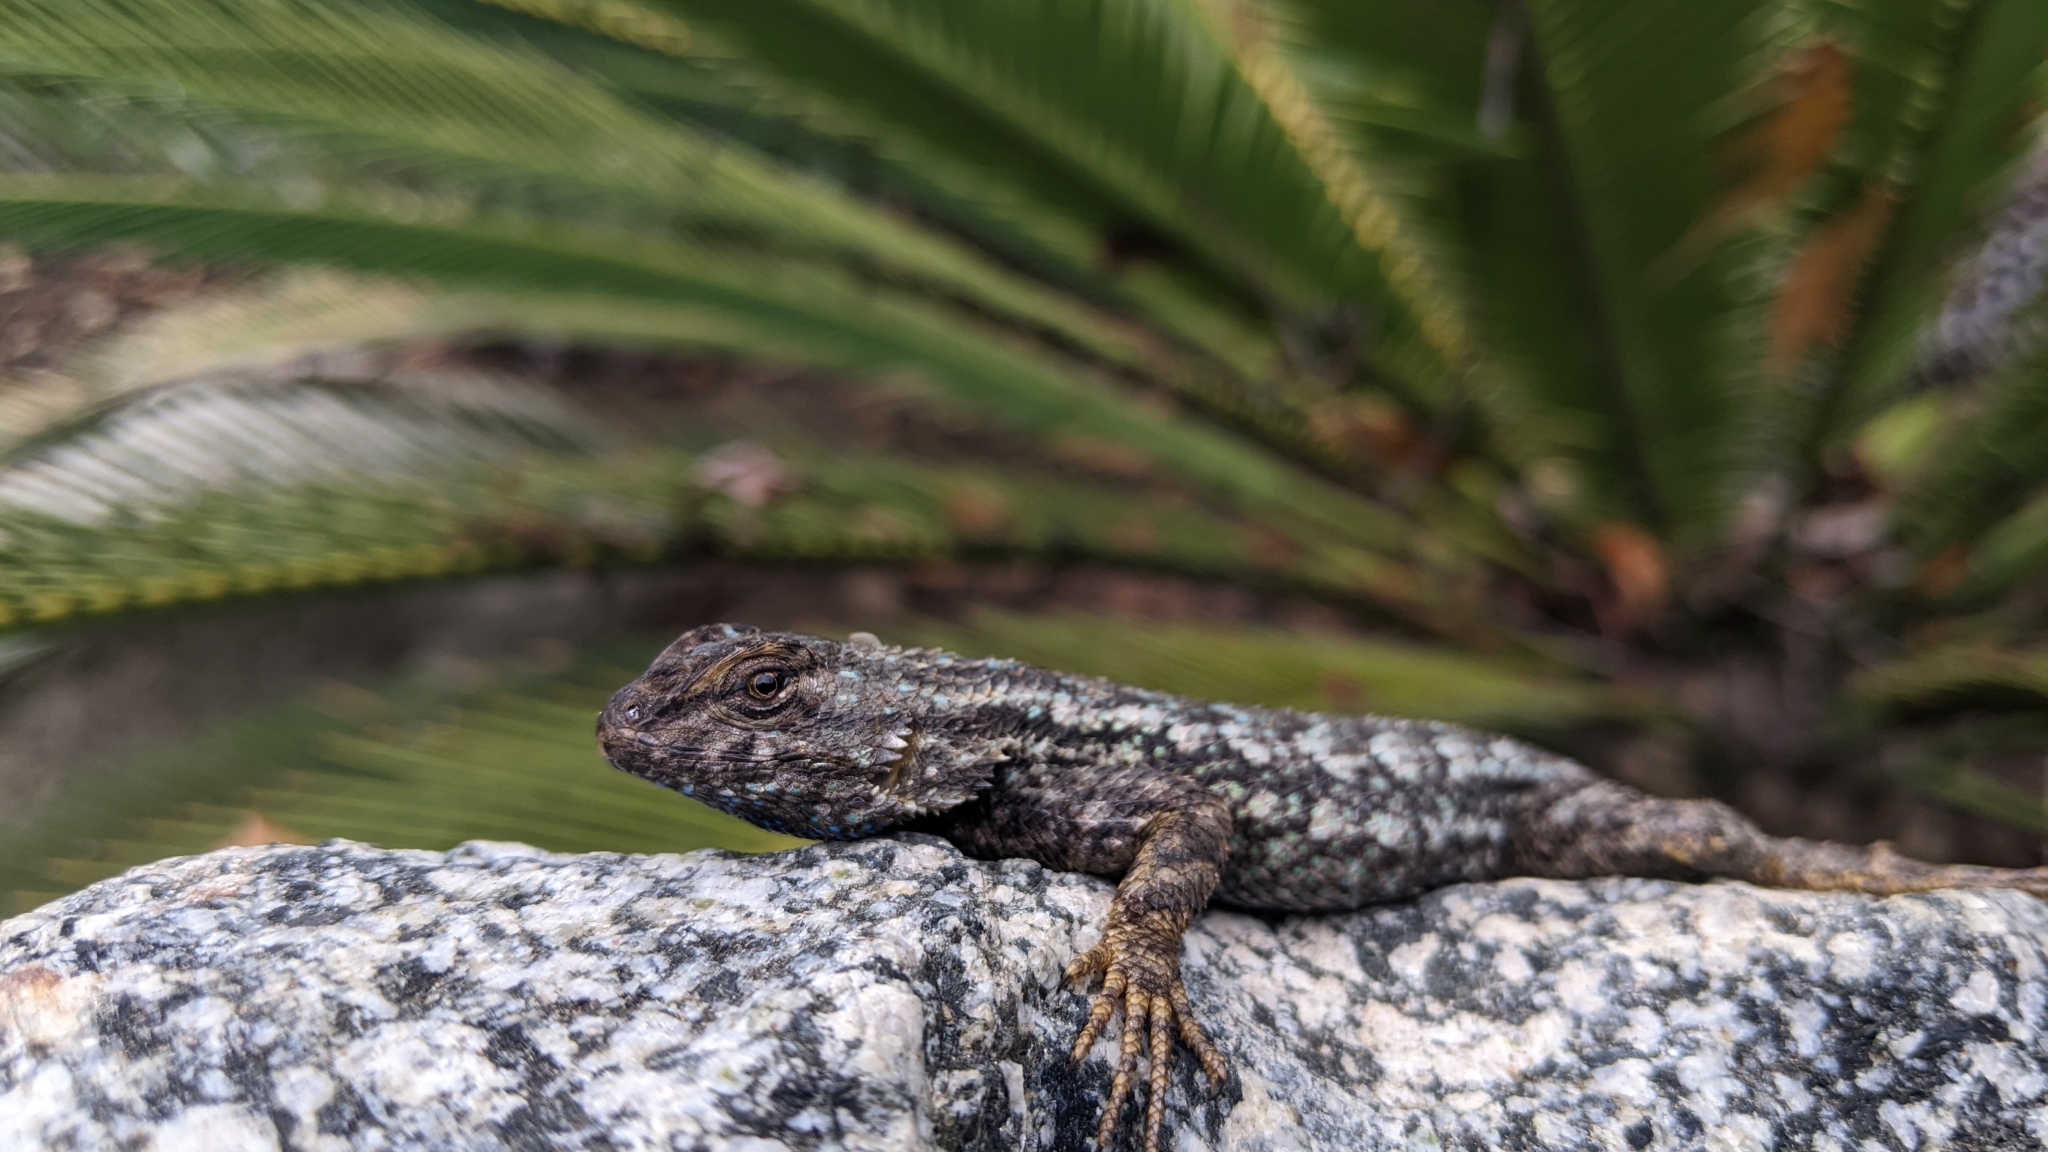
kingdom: Animalia
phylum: Chordata
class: Squamata
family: Phrynosomatidae
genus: Sceloporus
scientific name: Sceloporus occidentalis
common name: Western fence lizard
